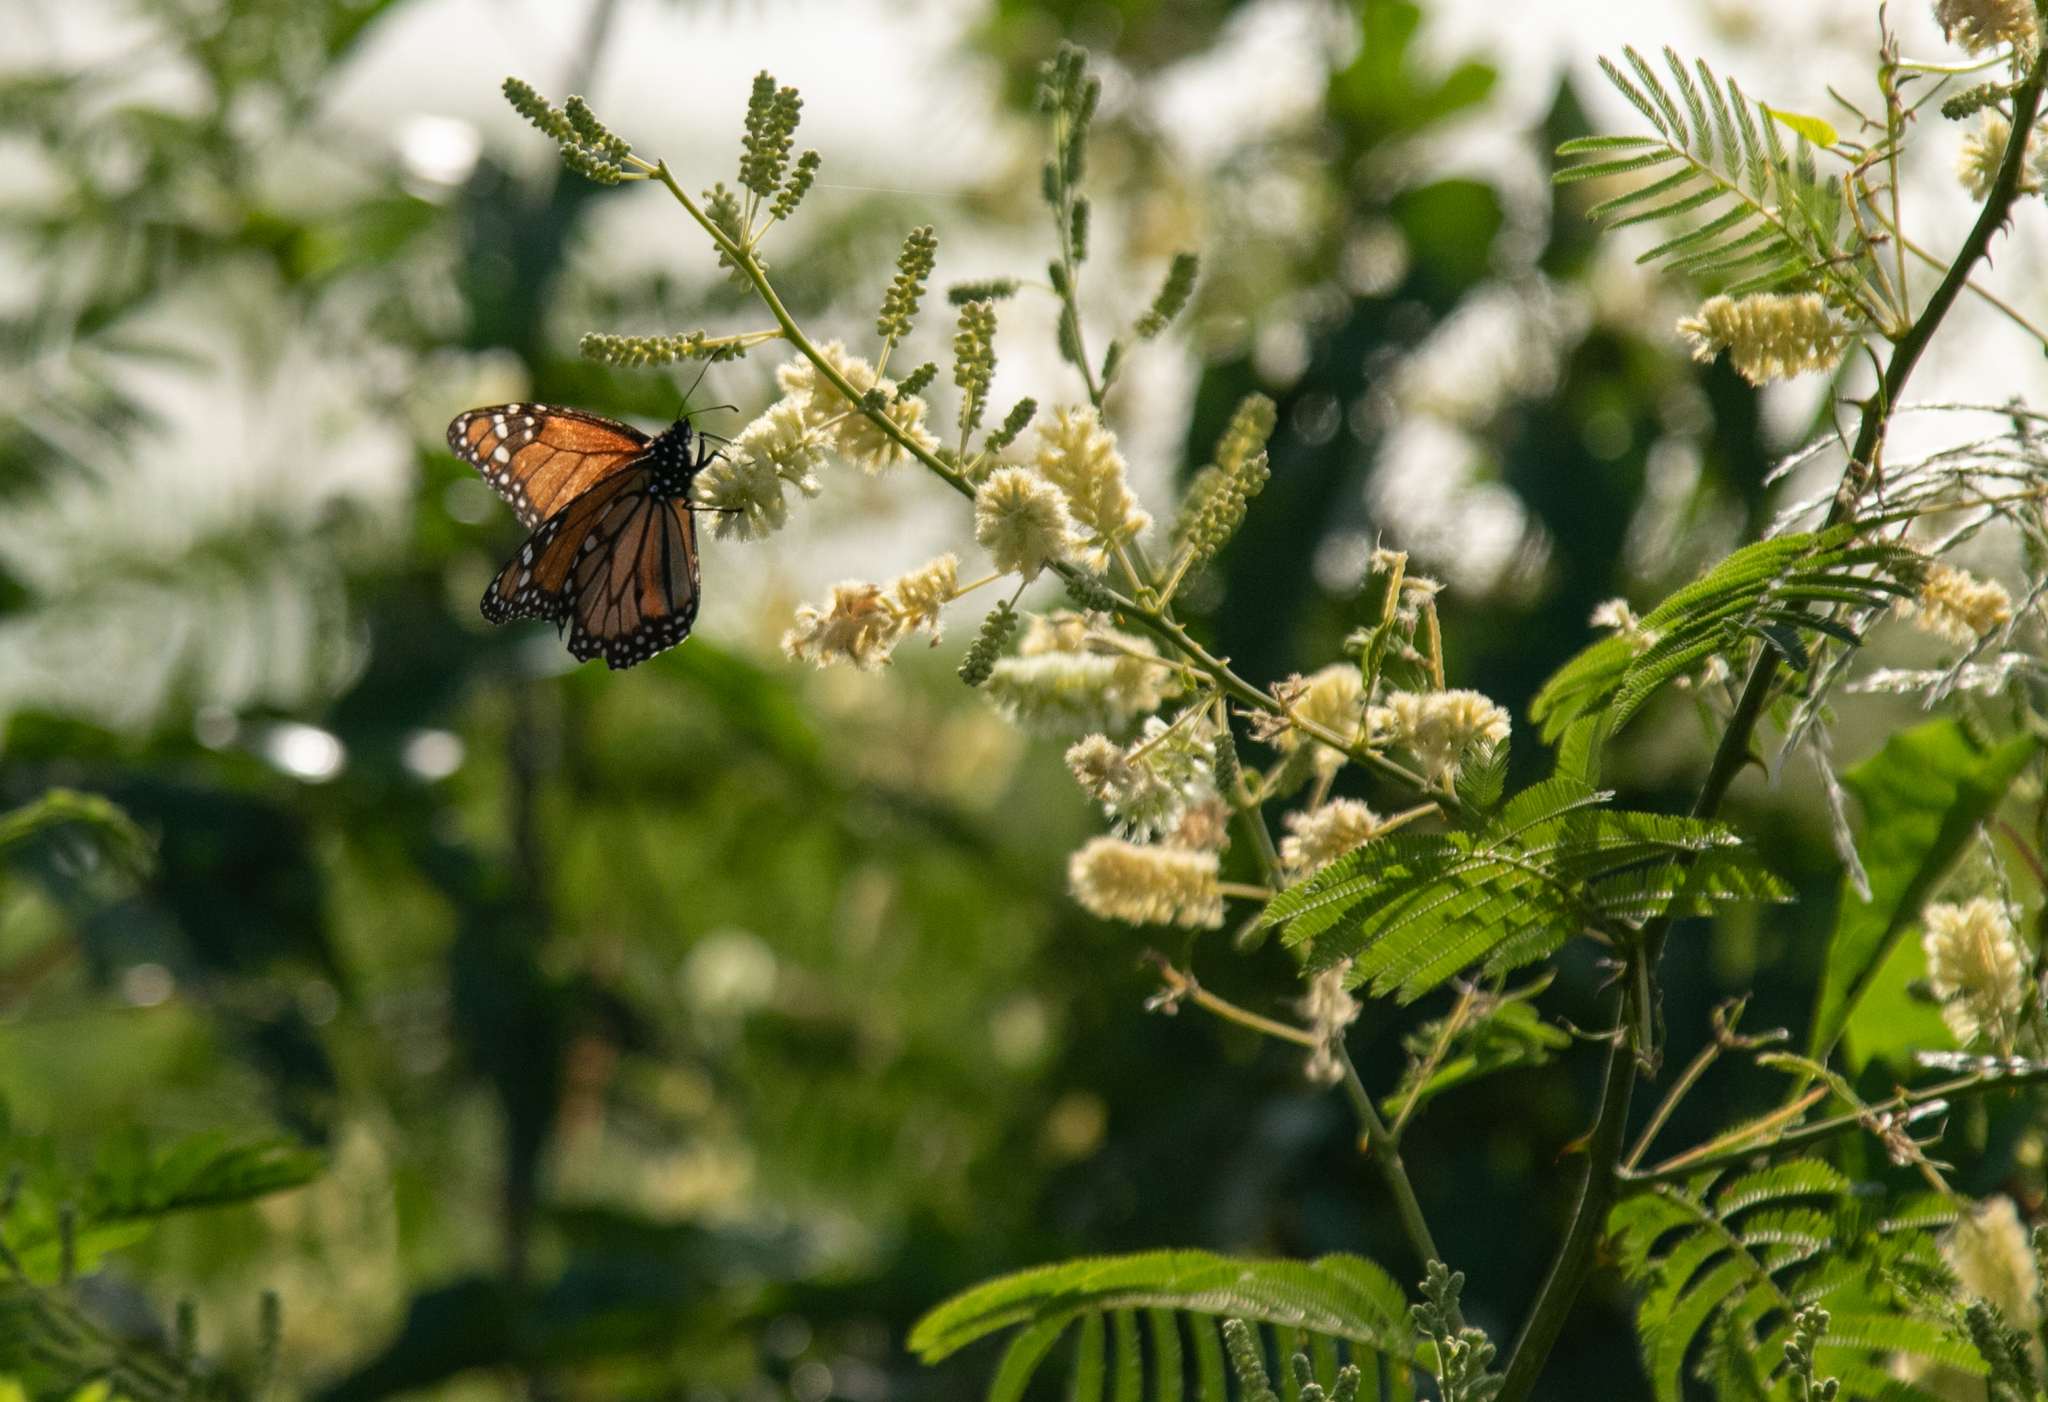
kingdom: Animalia
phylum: Arthropoda
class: Insecta
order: Lepidoptera
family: Nymphalidae
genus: Danaus
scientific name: Danaus erippus
